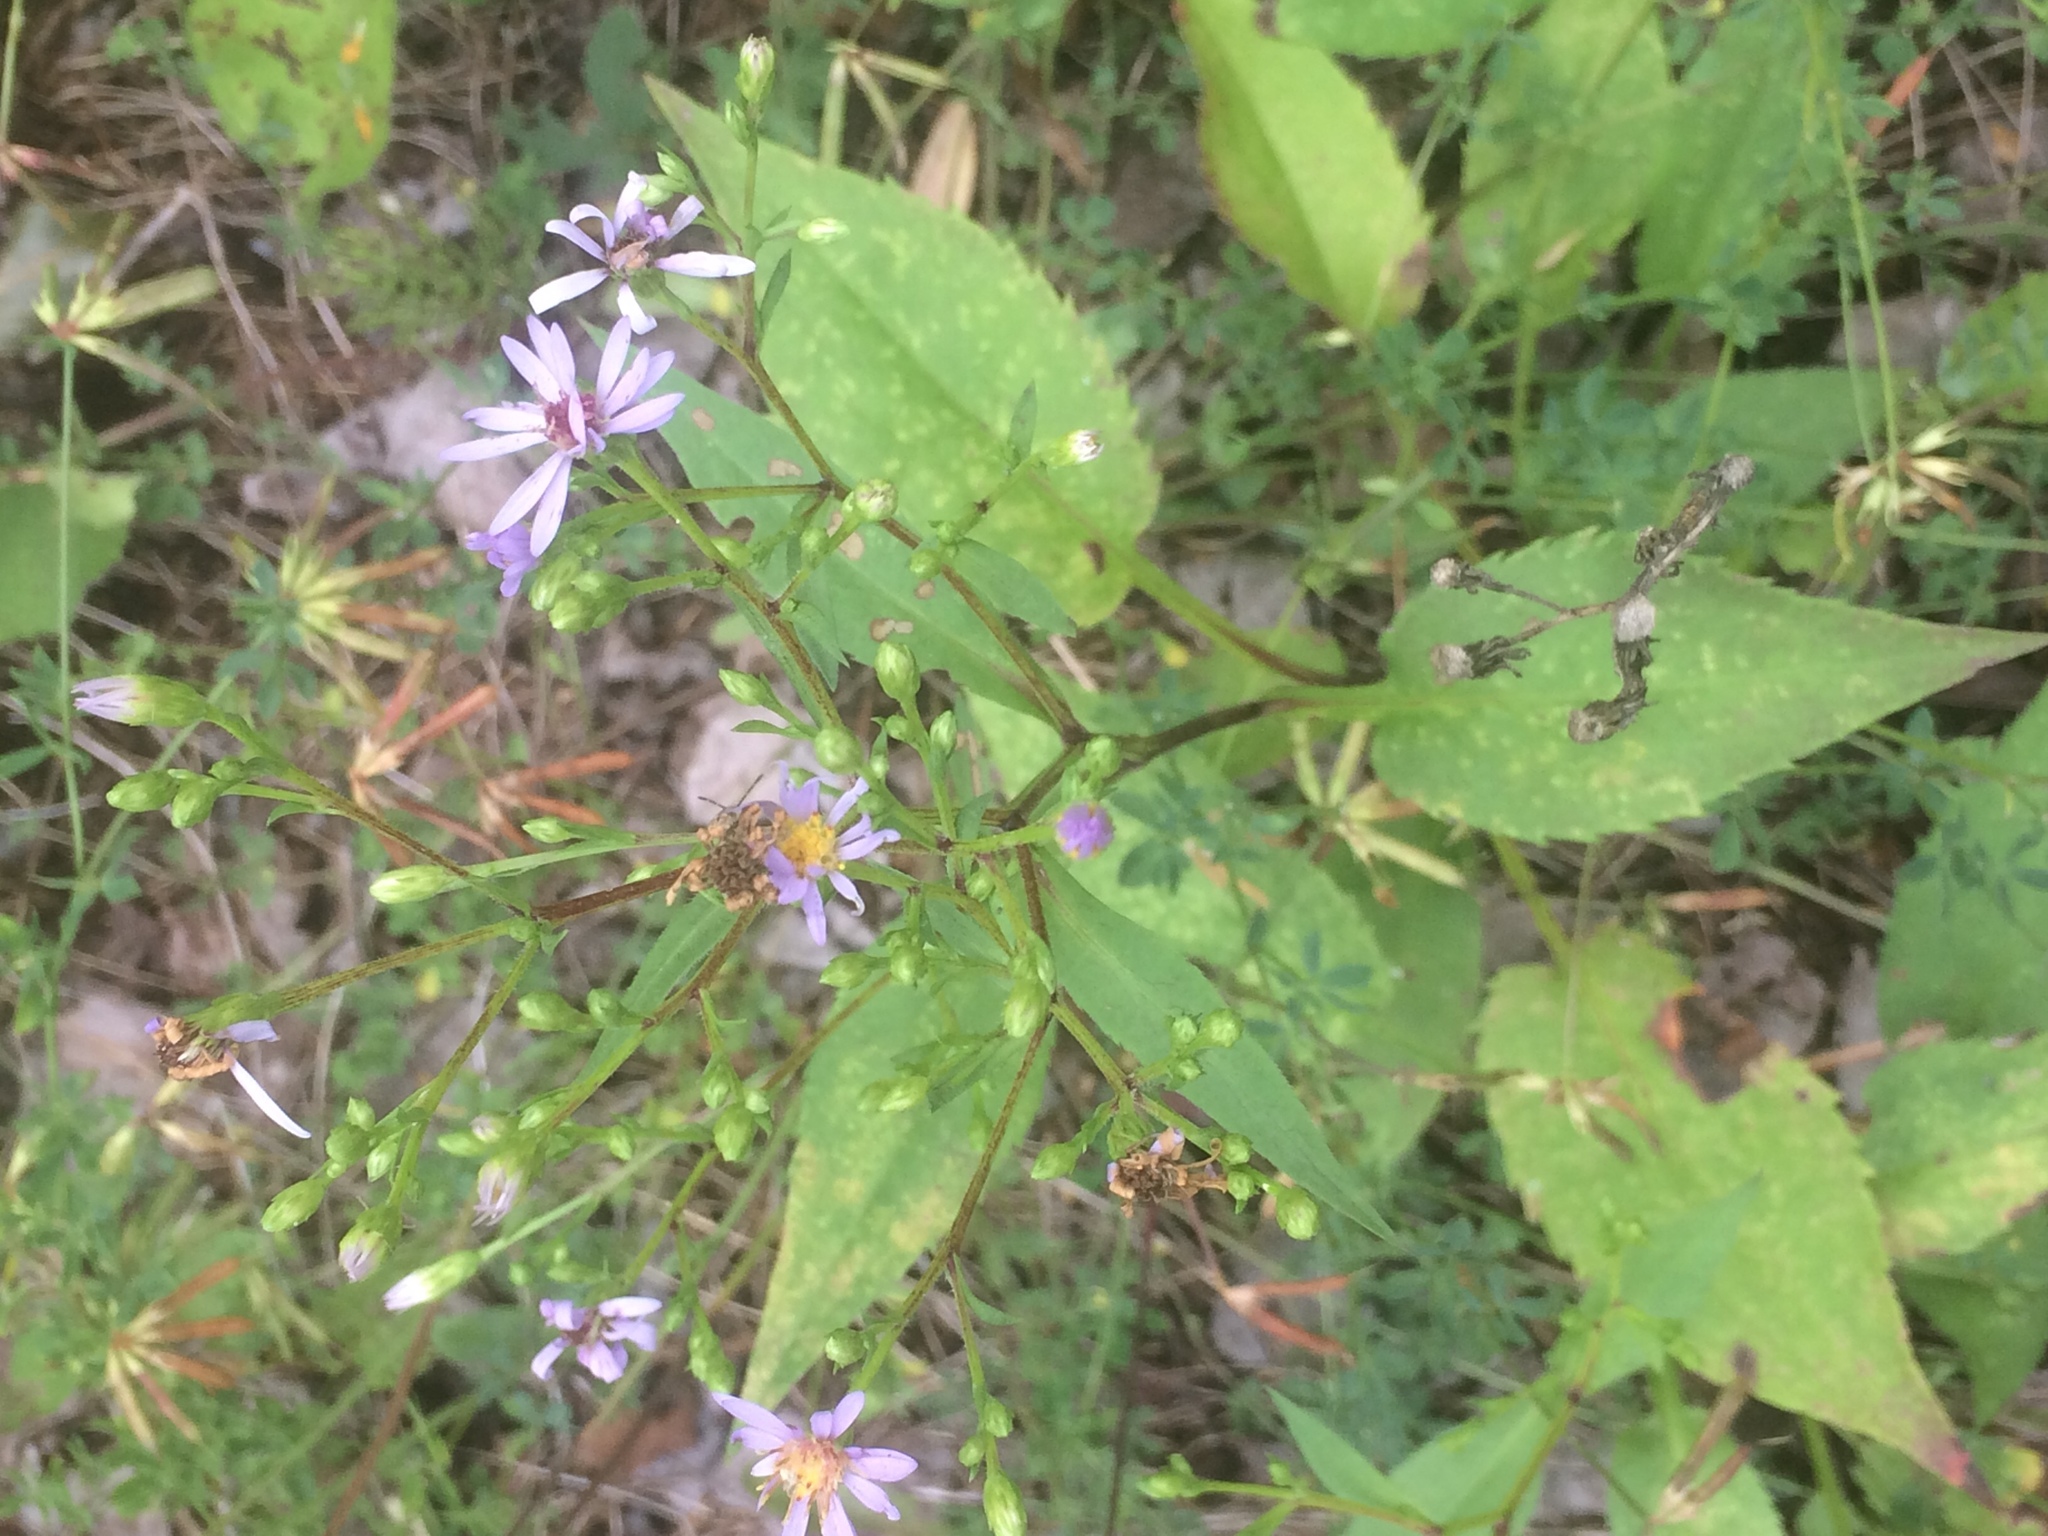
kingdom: Plantae
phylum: Tracheophyta
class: Magnoliopsida
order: Asterales
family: Asteraceae
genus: Symphyotrichum
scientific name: Symphyotrichum ciliolatum
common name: Fringed blue aster
